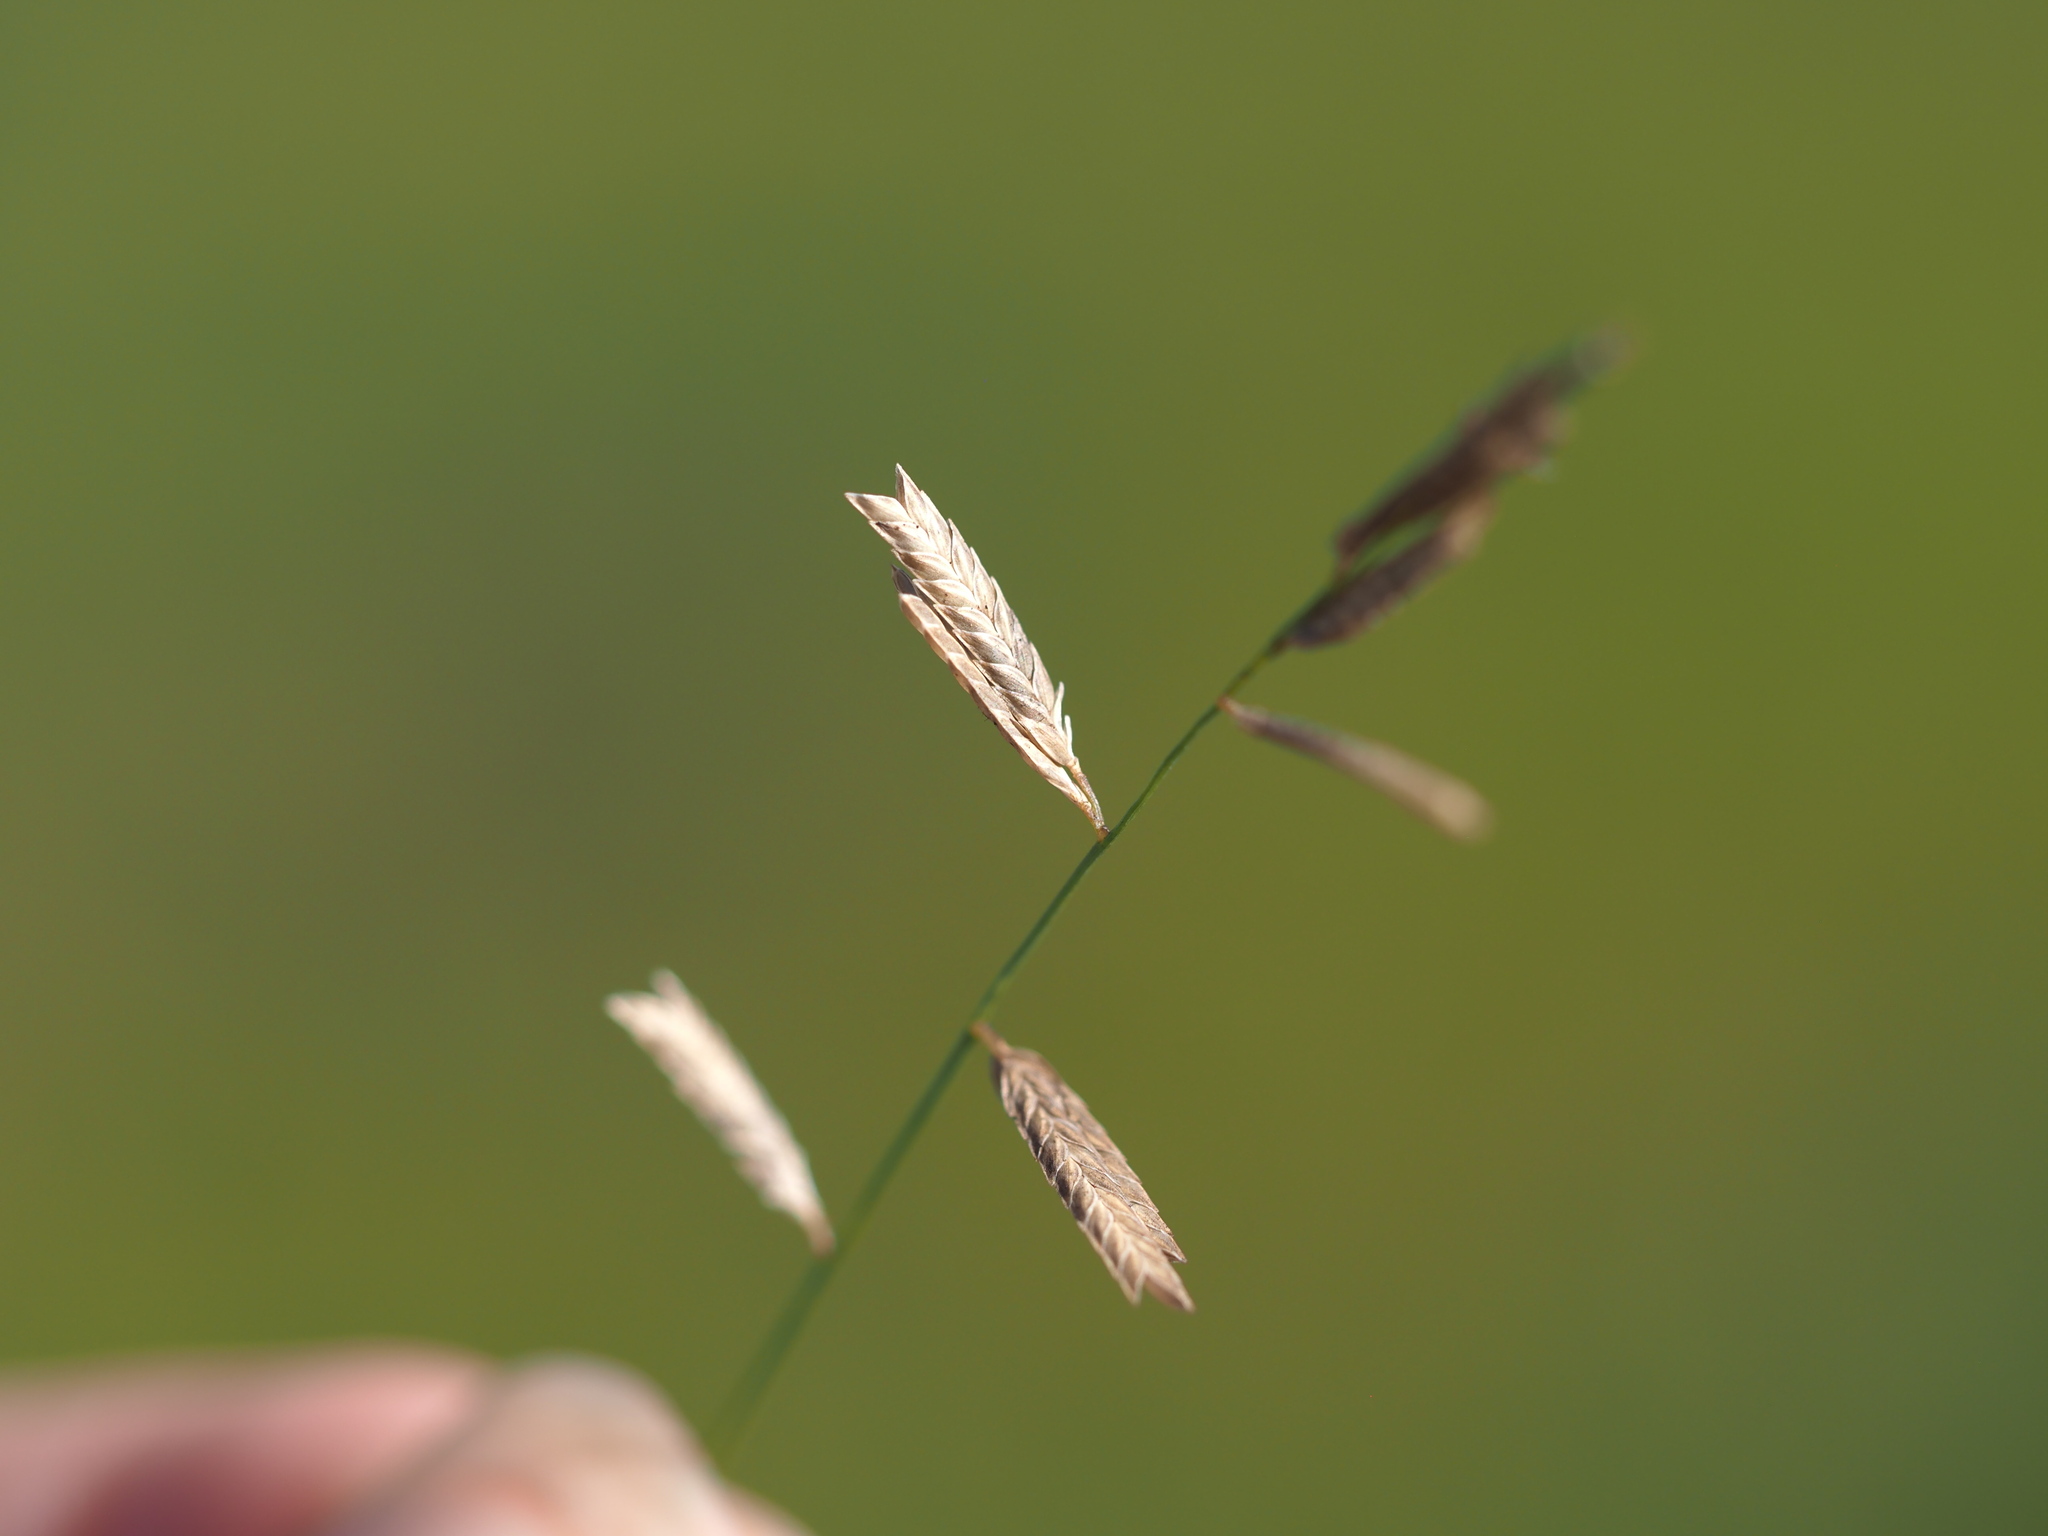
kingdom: Plantae
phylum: Tracheophyta
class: Liliopsida
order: Poales
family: Poaceae
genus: Eragrostis
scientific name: Eragrostis brownii
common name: Lovegrass
